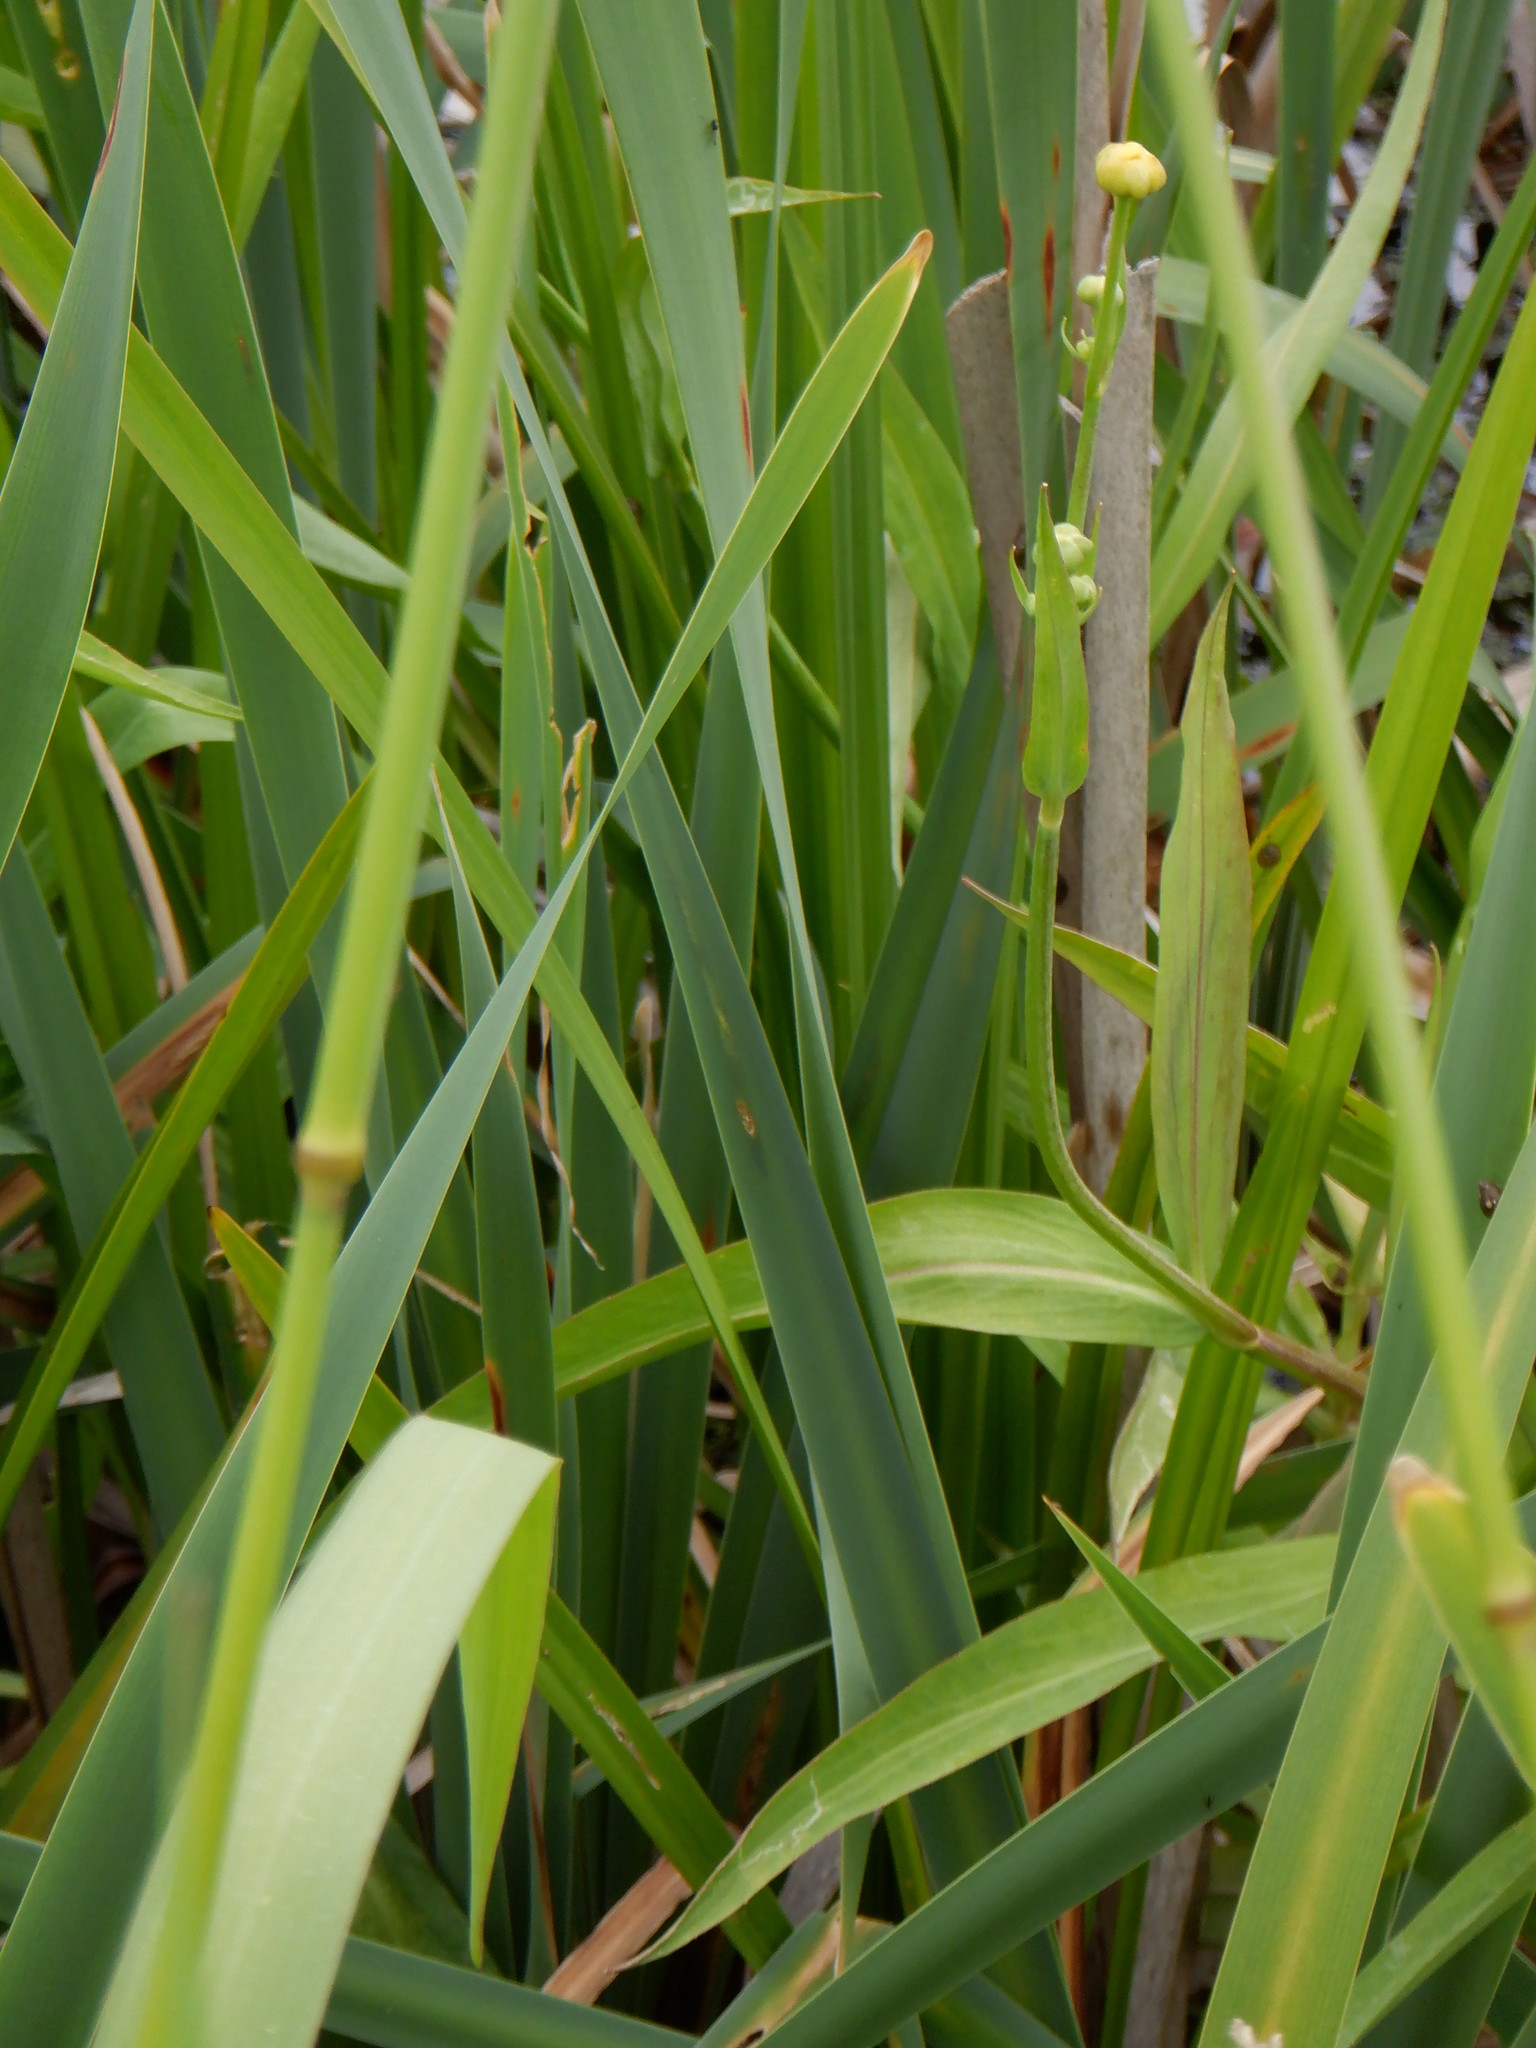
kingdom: Plantae
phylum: Tracheophyta
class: Magnoliopsida
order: Ranunculales
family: Ranunculaceae
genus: Ranunculus
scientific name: Ranunculus lingua
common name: Greater spearwort
